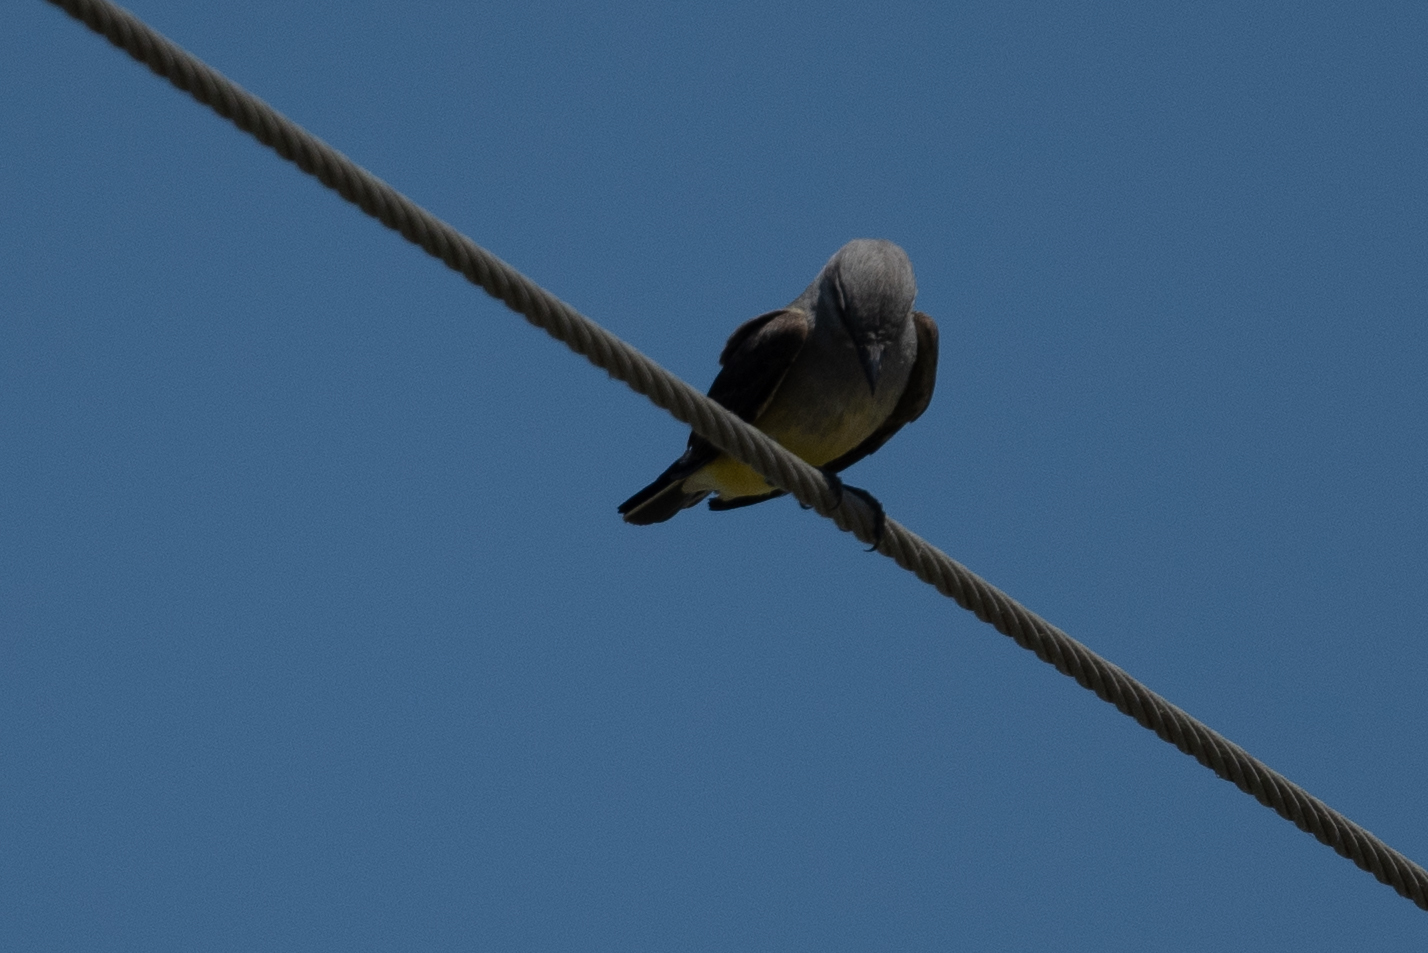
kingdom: Animalia
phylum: Chordata
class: Aves
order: Passeriformes
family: Tyrannidae
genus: Tyrannus
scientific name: Tyrannus verticalis
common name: Western kingbird
